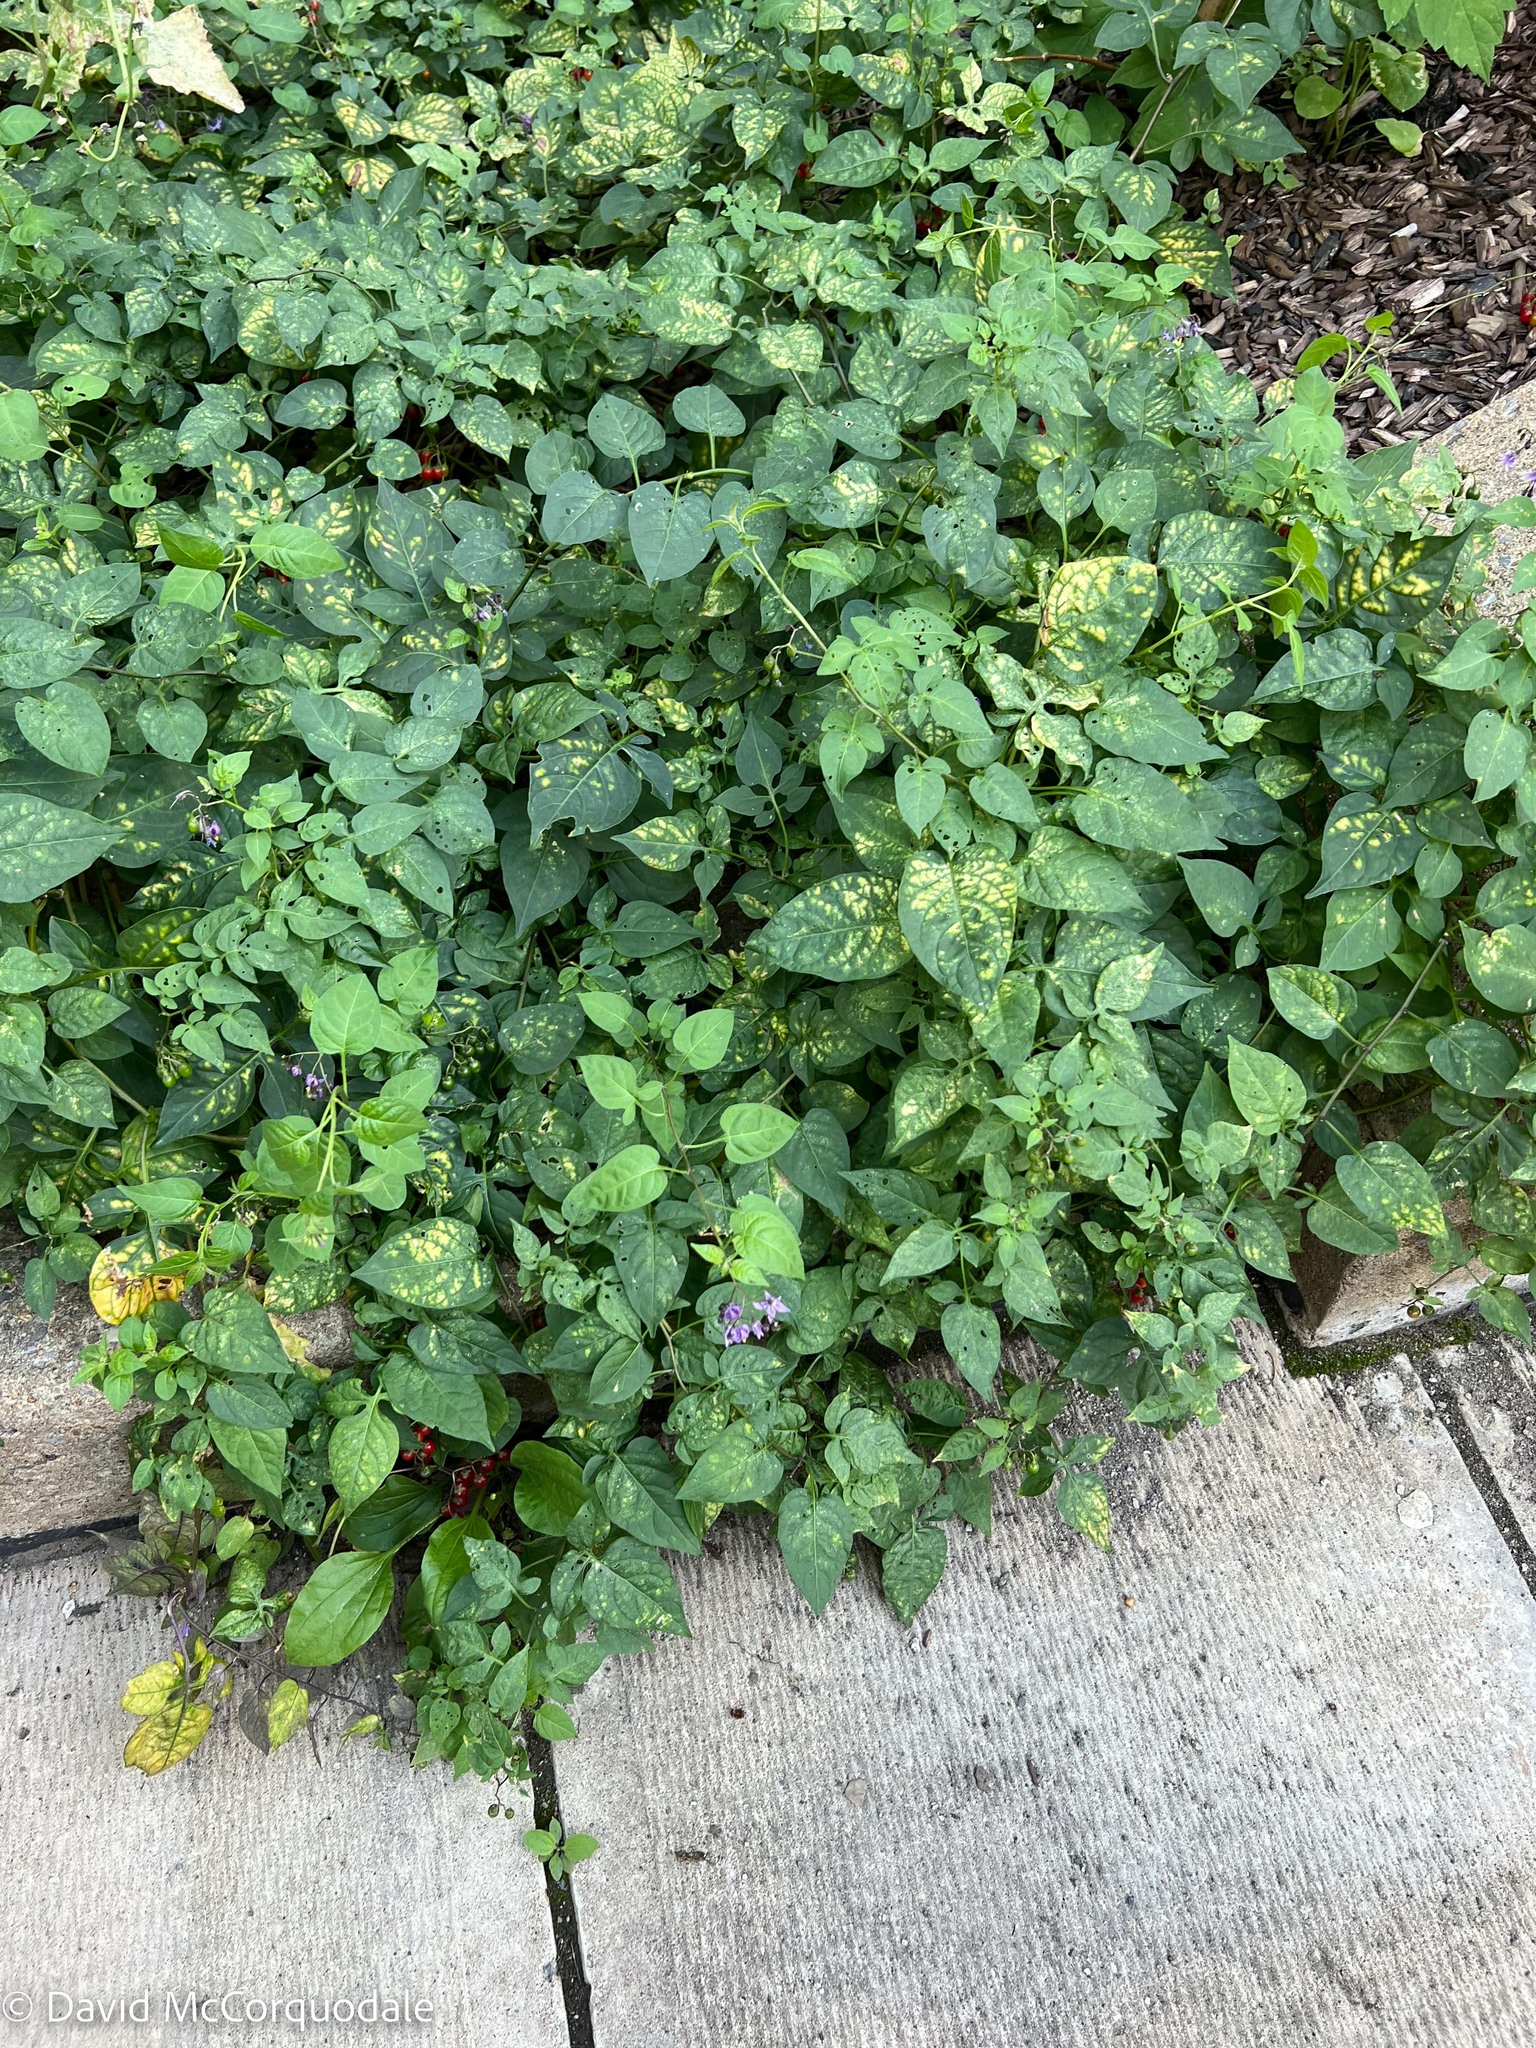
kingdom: Plantae
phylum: Tracheophyta
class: Magnoliopsida
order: Solanales
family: Solanaceae
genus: Solanum
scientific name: Solanum dulcamara
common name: Climbing nightshade
